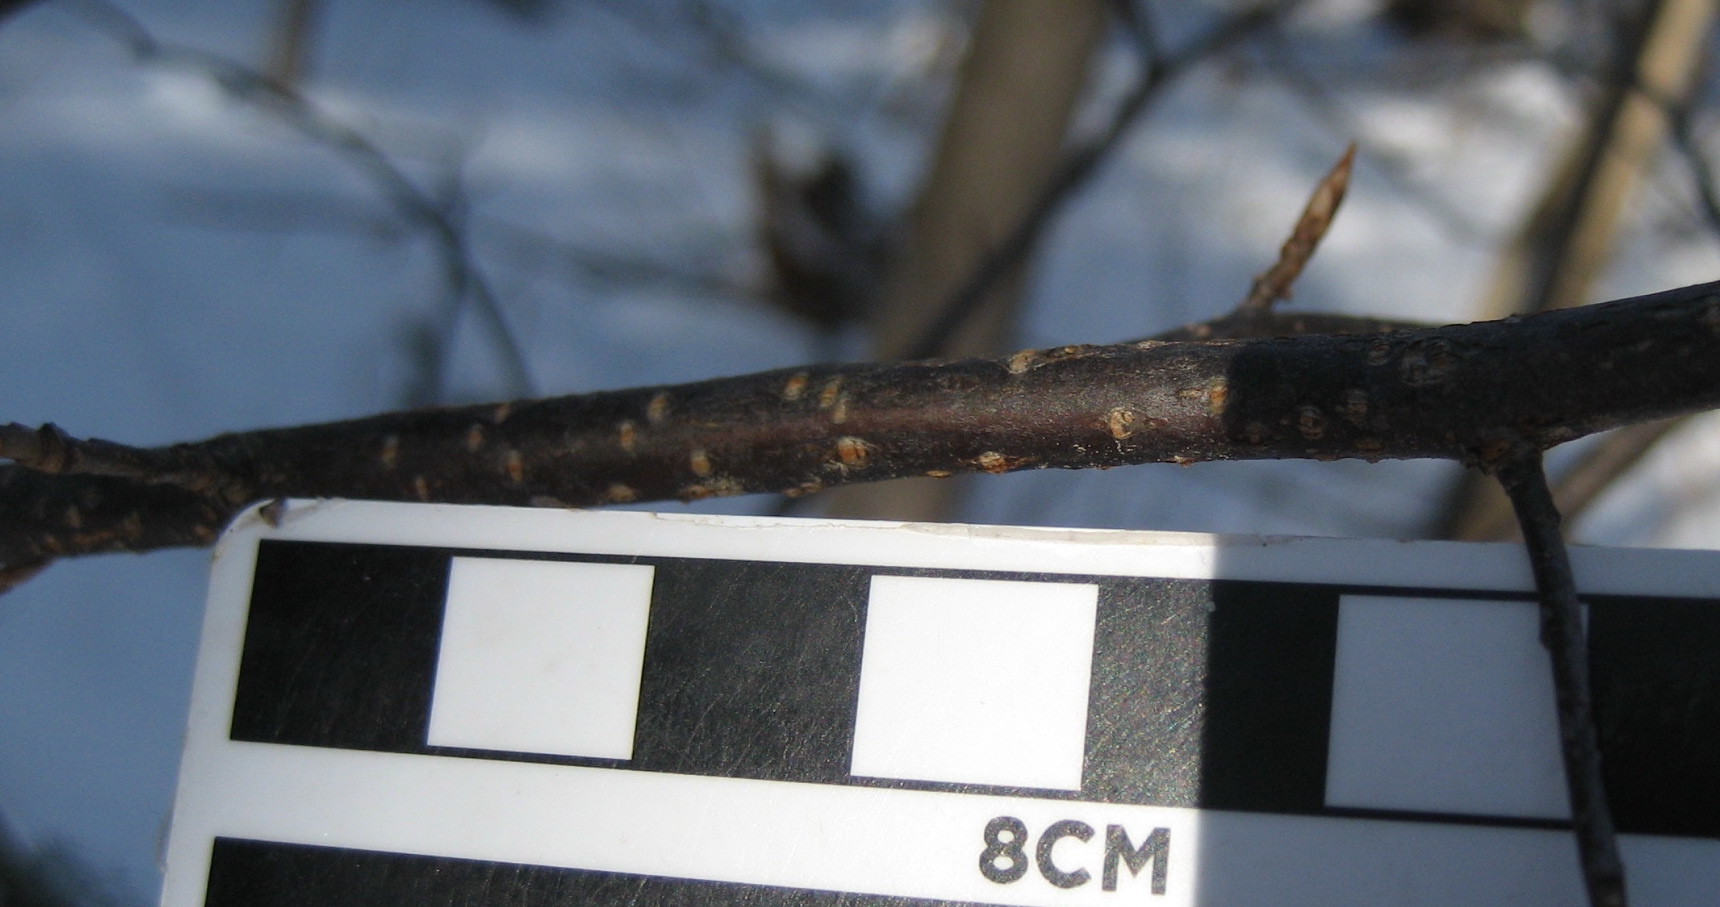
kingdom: Plantae
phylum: Tracheophyta
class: Magnoliopsida
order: Rosales
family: Rosaceae
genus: Prunus
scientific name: Prunus virginiana
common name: Chokecherry
